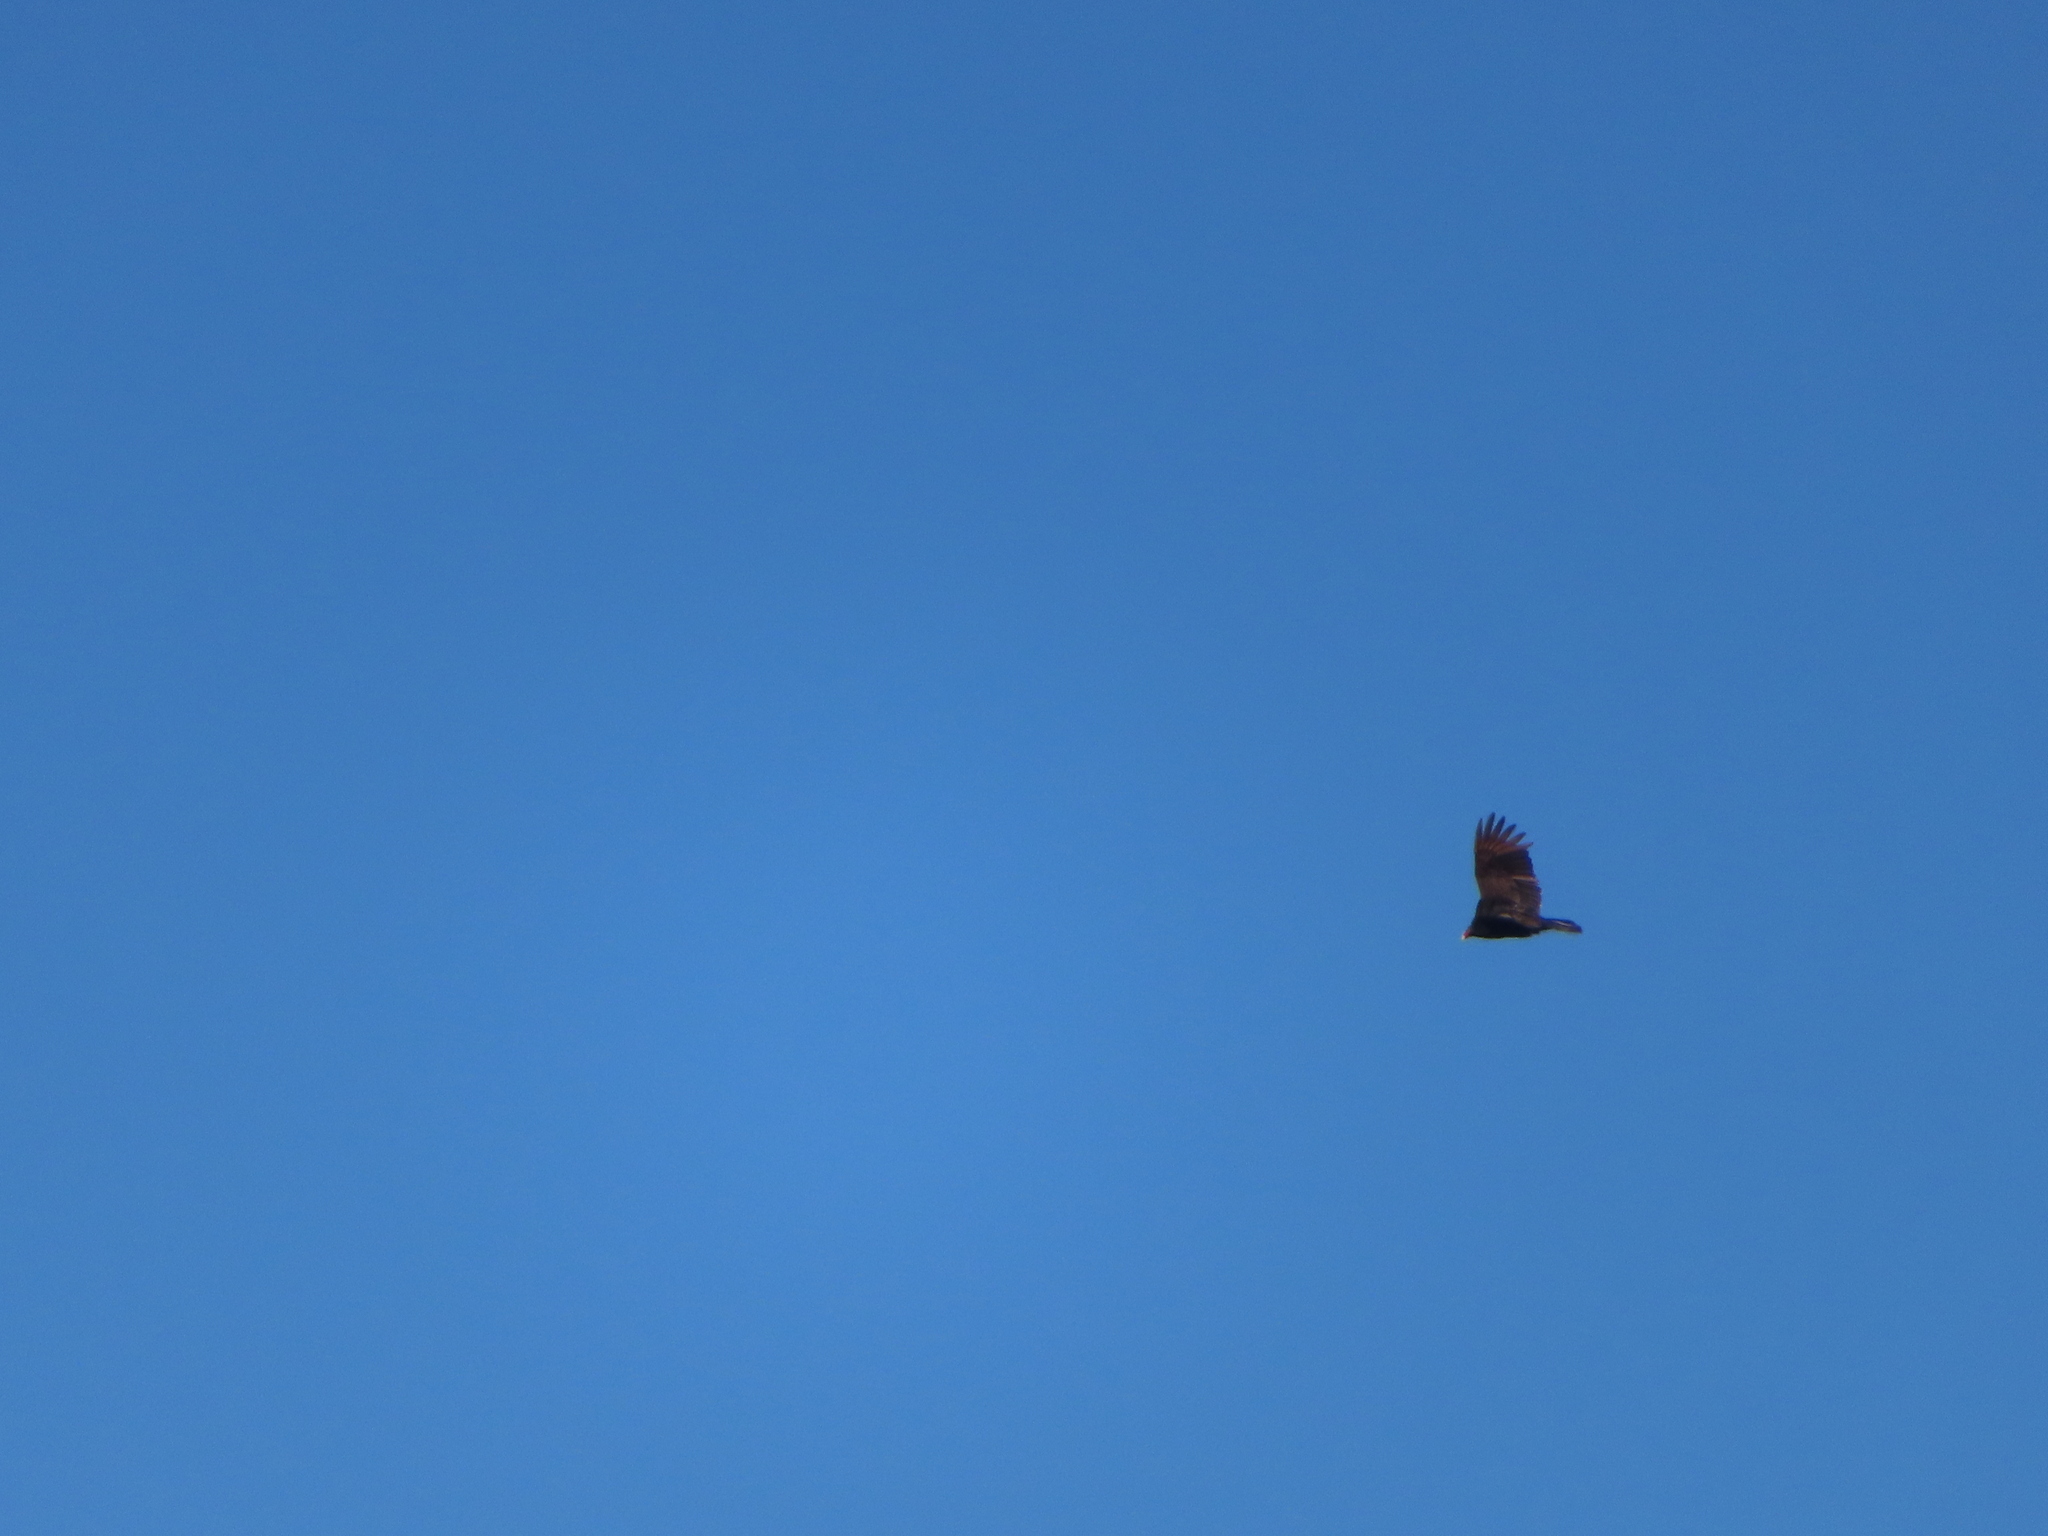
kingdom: Animalia
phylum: Chordata
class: Aves
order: Accipitriformes
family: Cathartidae
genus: Cathartes
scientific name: Cathartes aura
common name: Turkey vulture
